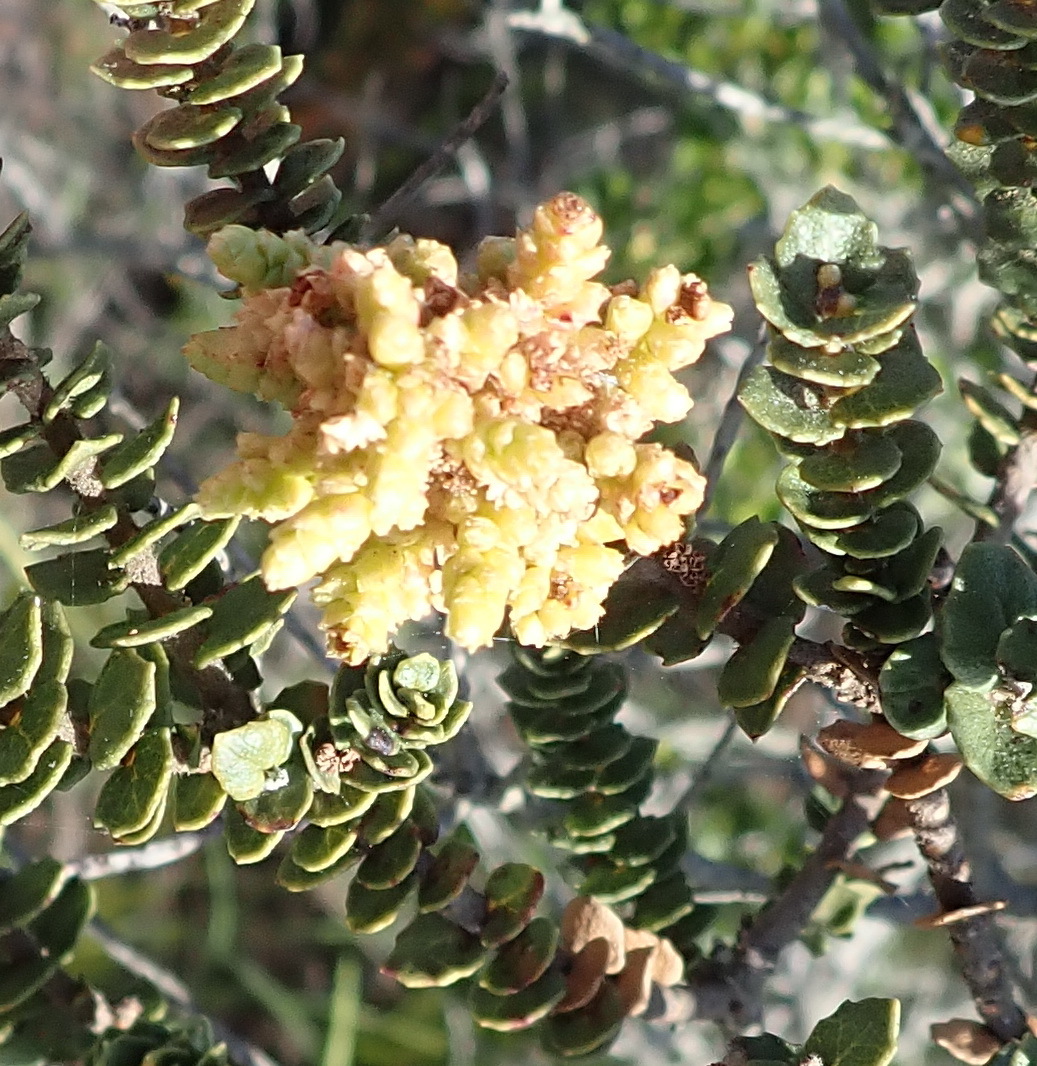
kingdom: Plantae
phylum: Tracheophyta
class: Magnoliopsida
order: Fagales
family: Myricaceae
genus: Morella
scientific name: Morella cordifolia
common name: Waxberry
